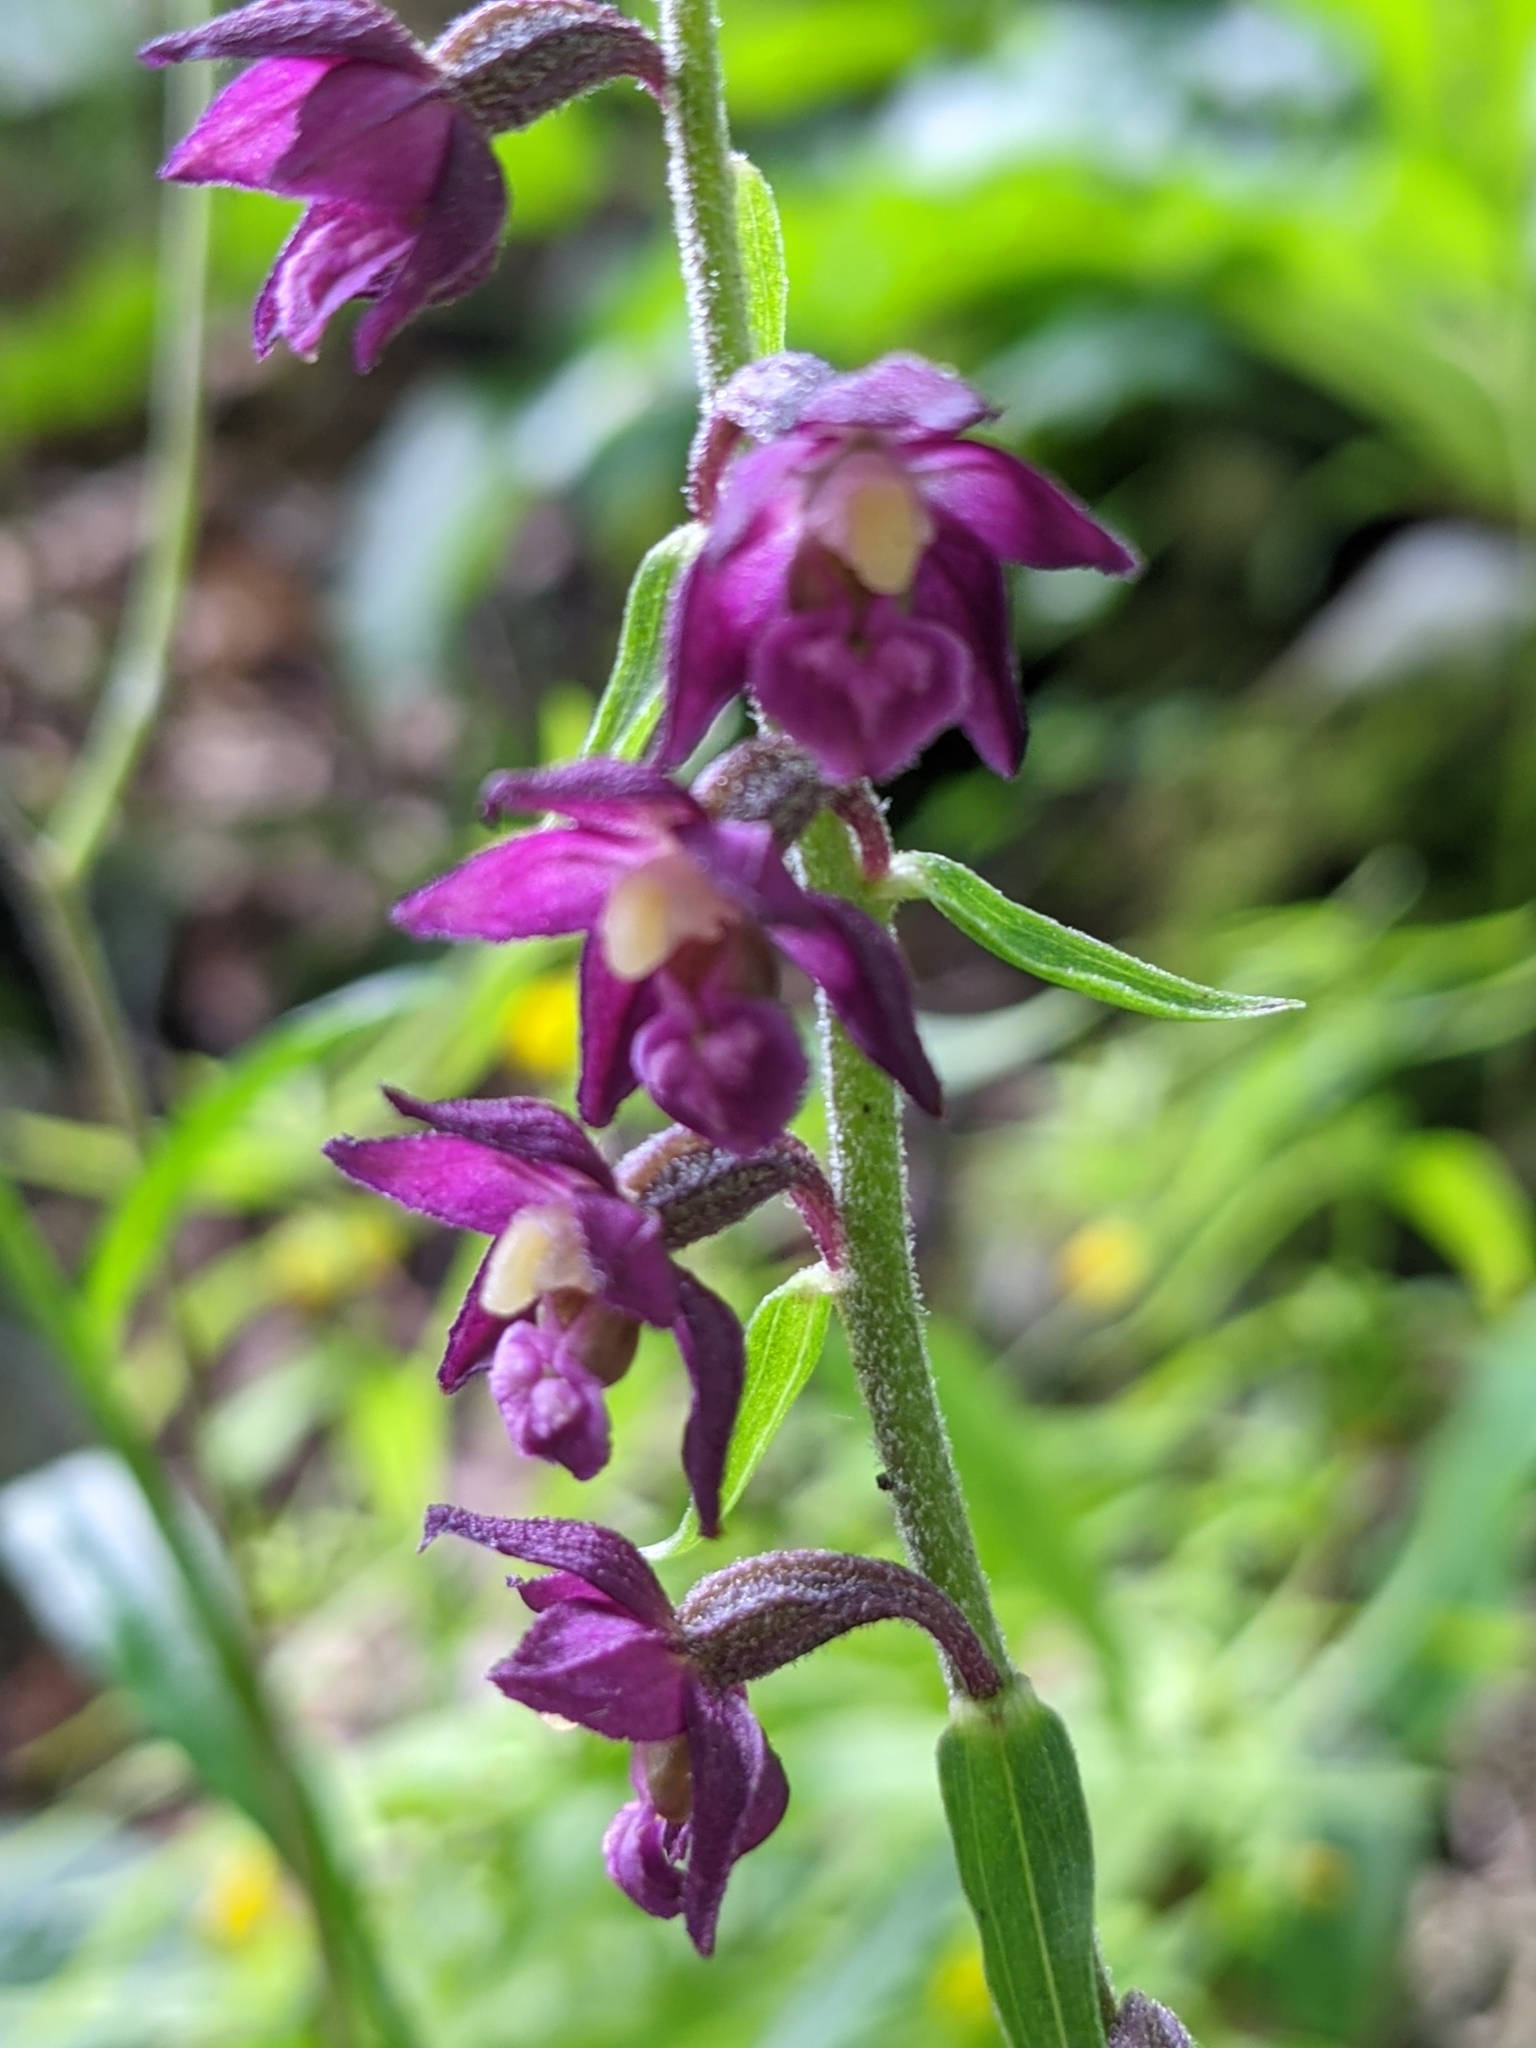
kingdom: Plantae
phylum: Tracheophyta
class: Liliopsida
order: Asparagales
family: Orchidaceae
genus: Epipactis
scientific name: Epipactis atrorubens
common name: Dark-red helleborine
